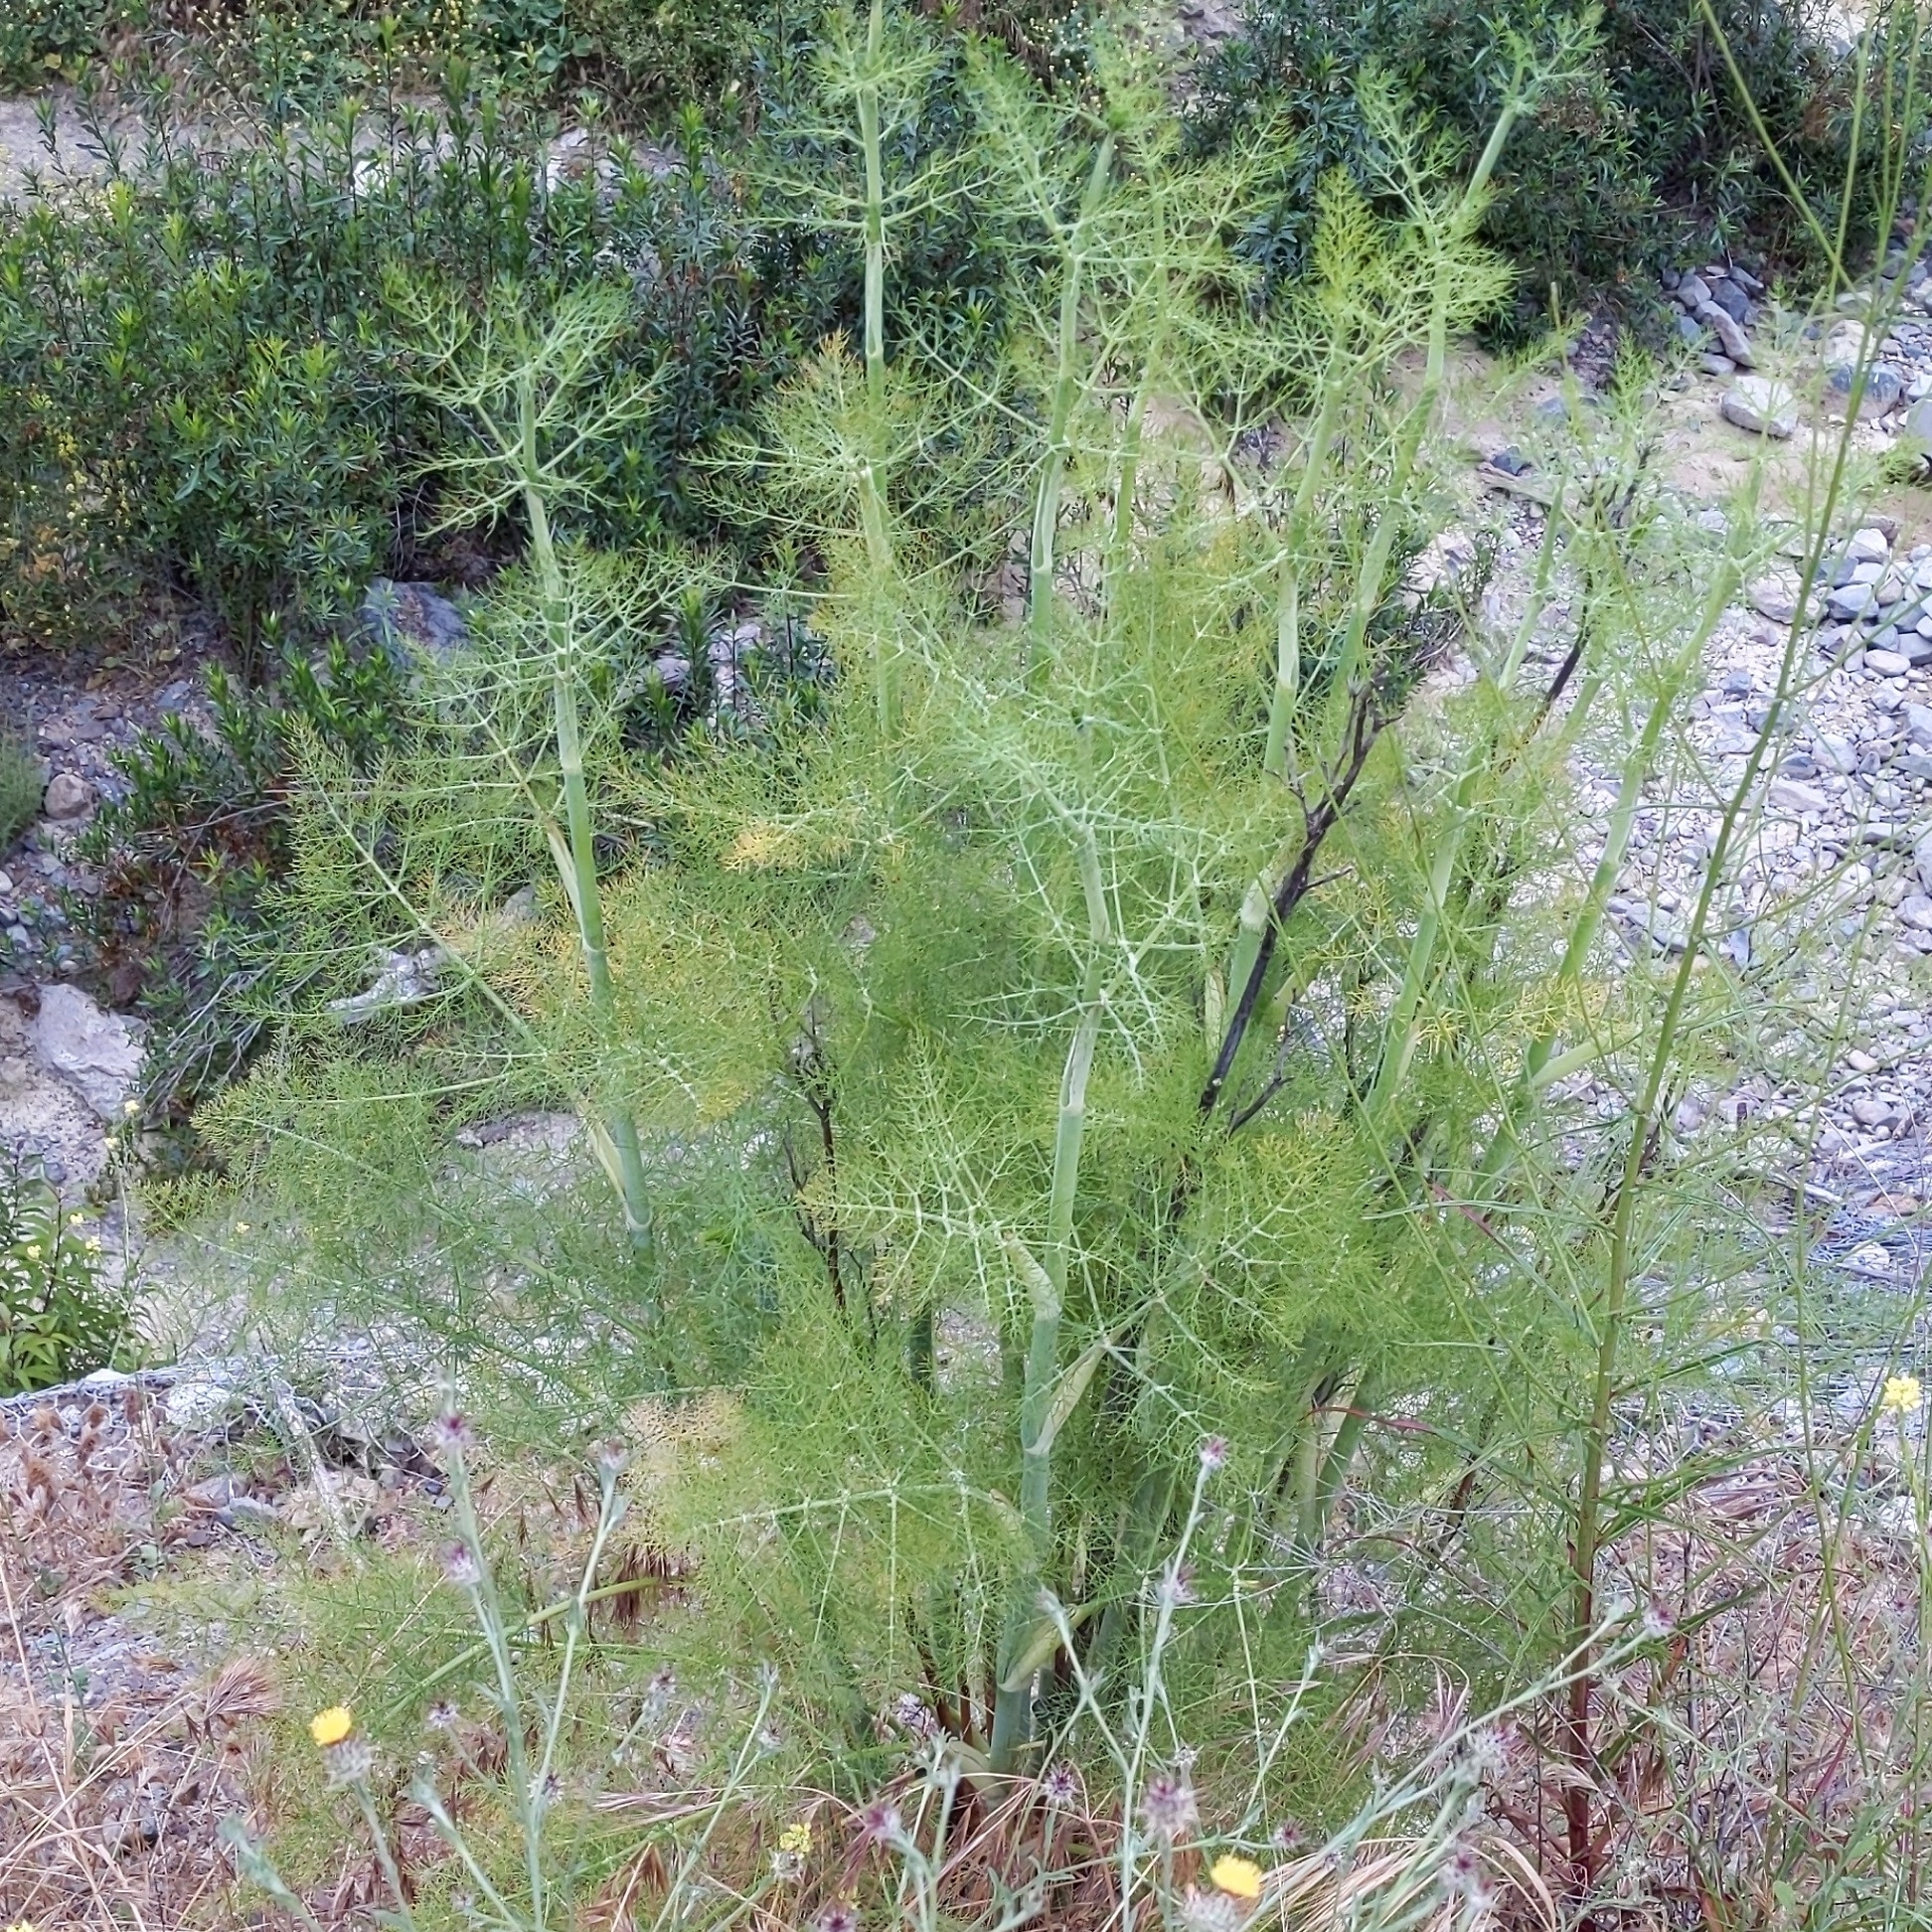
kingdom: Plantae
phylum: Tracheophyta
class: Magnoliopsida
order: Apiales
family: Apiaceae
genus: Foeniculum
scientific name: Foeniculum vulgare
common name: Fennel
